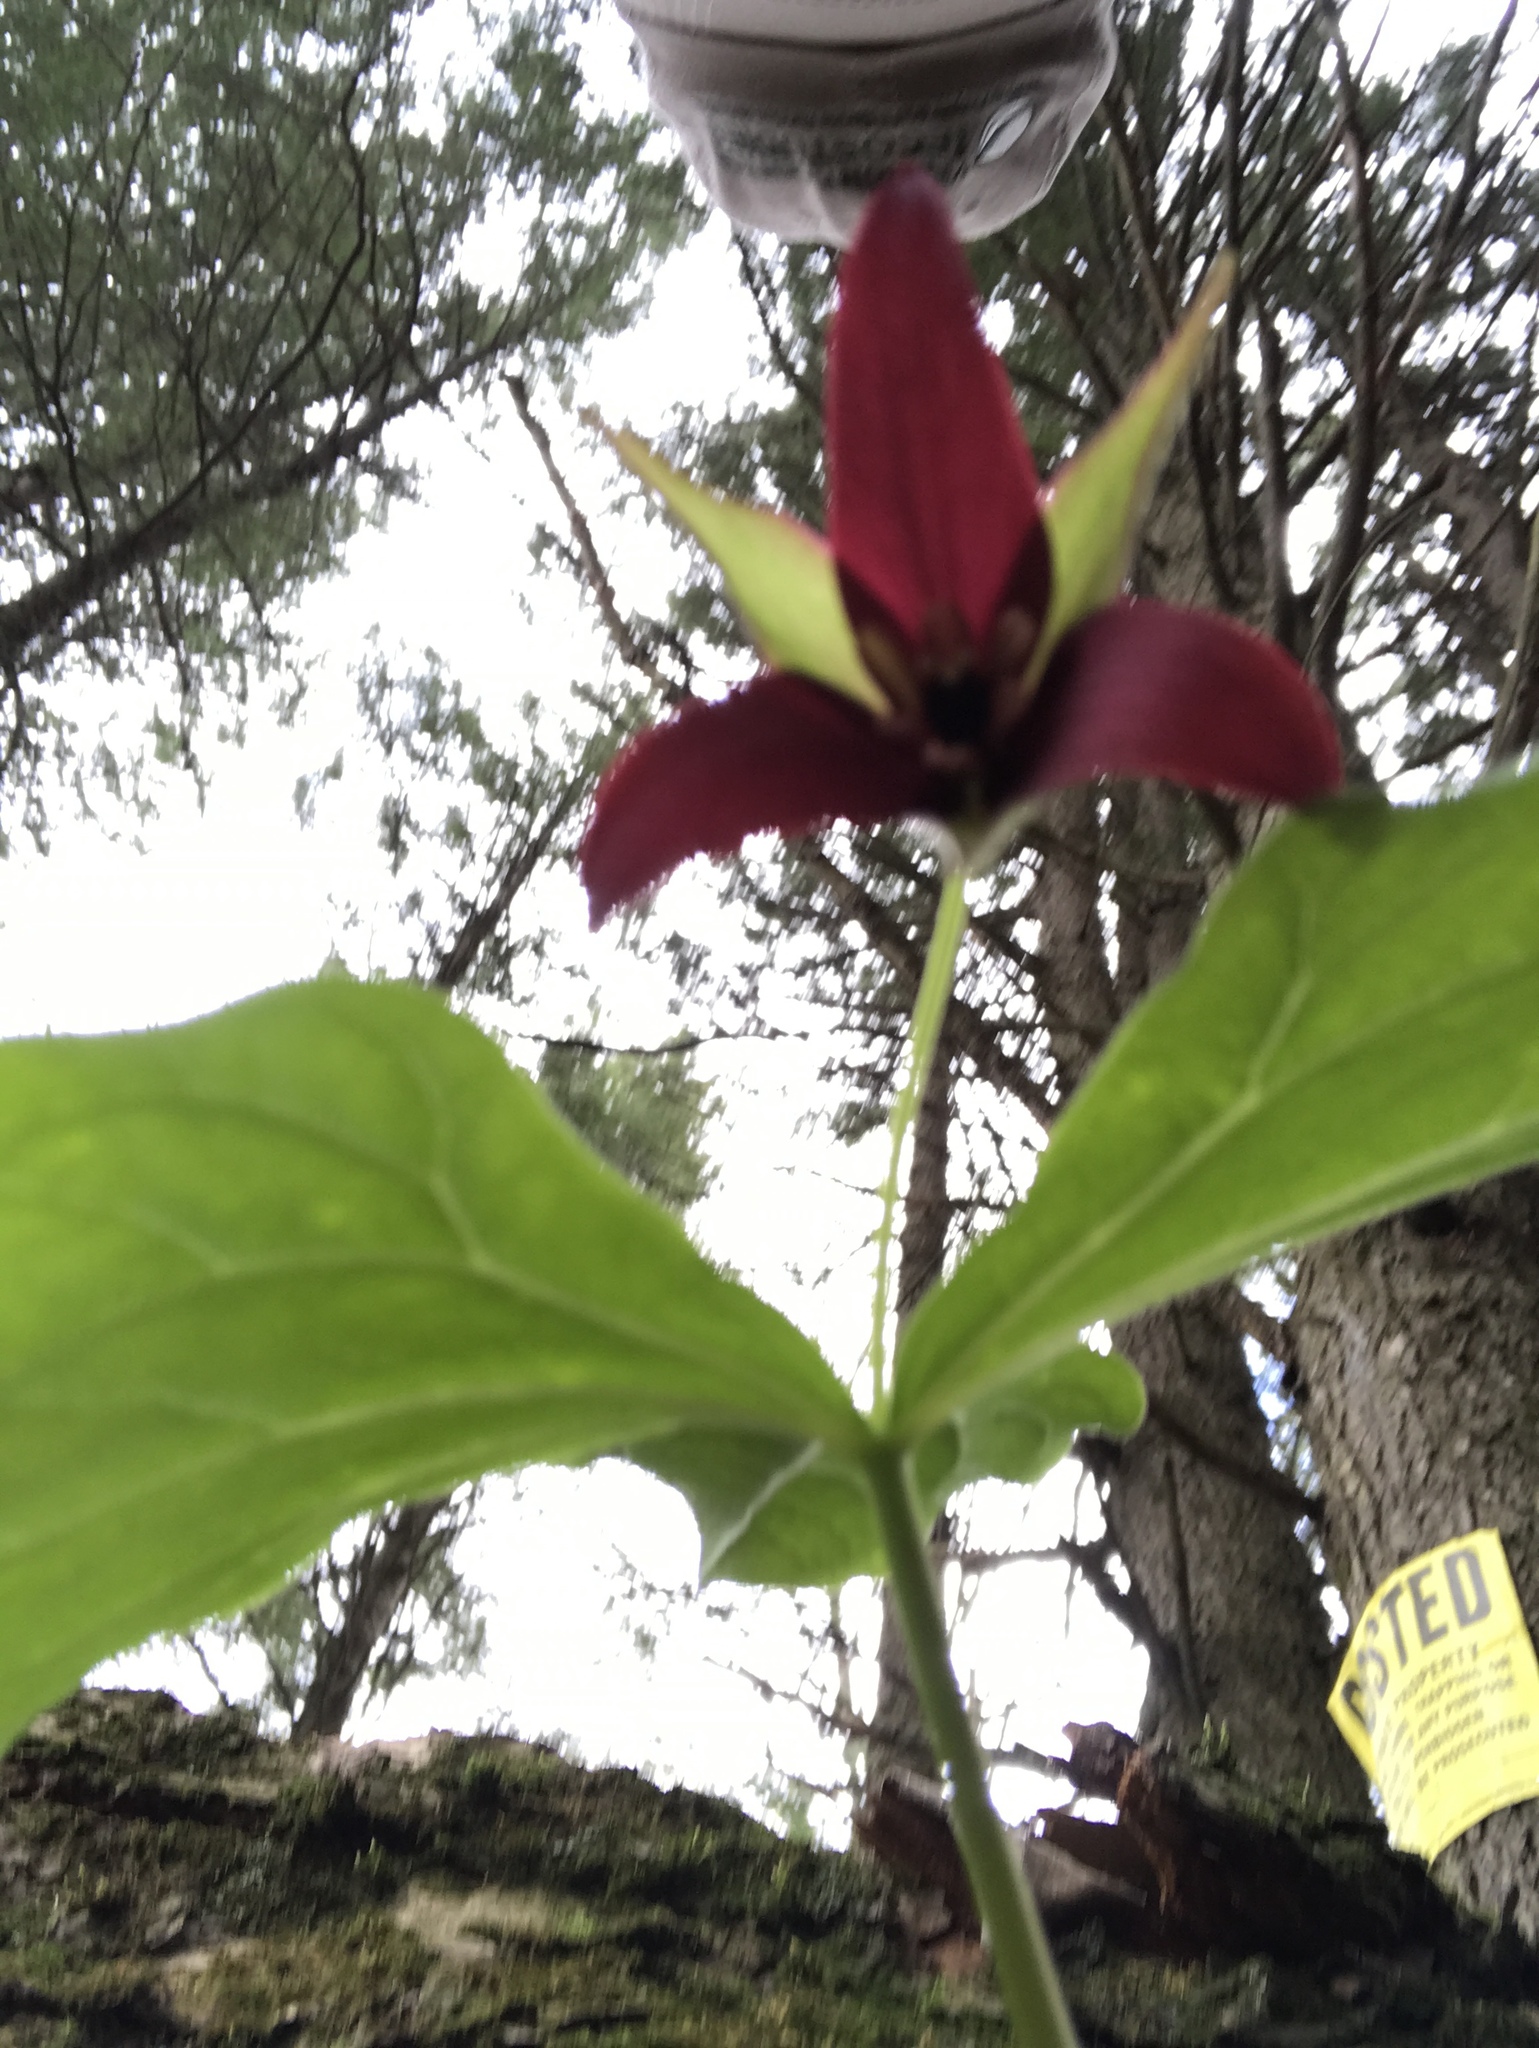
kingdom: Plantae
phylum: Tracheophyta
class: Liliopsida
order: Liliales
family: Melanthiaceae
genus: Trillium
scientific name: Trillium erectum
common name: Purple trillium
